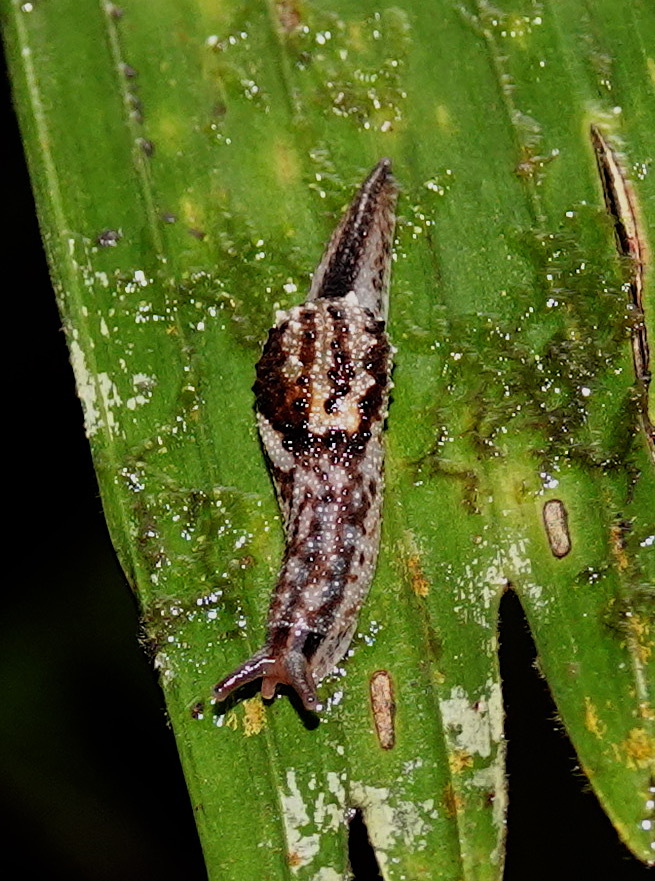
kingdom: Animalia
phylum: Mollusca
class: Gastropoda
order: Stylommatophora
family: Ariophantidae
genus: Microparmarion
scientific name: Microparmarion simrothi
